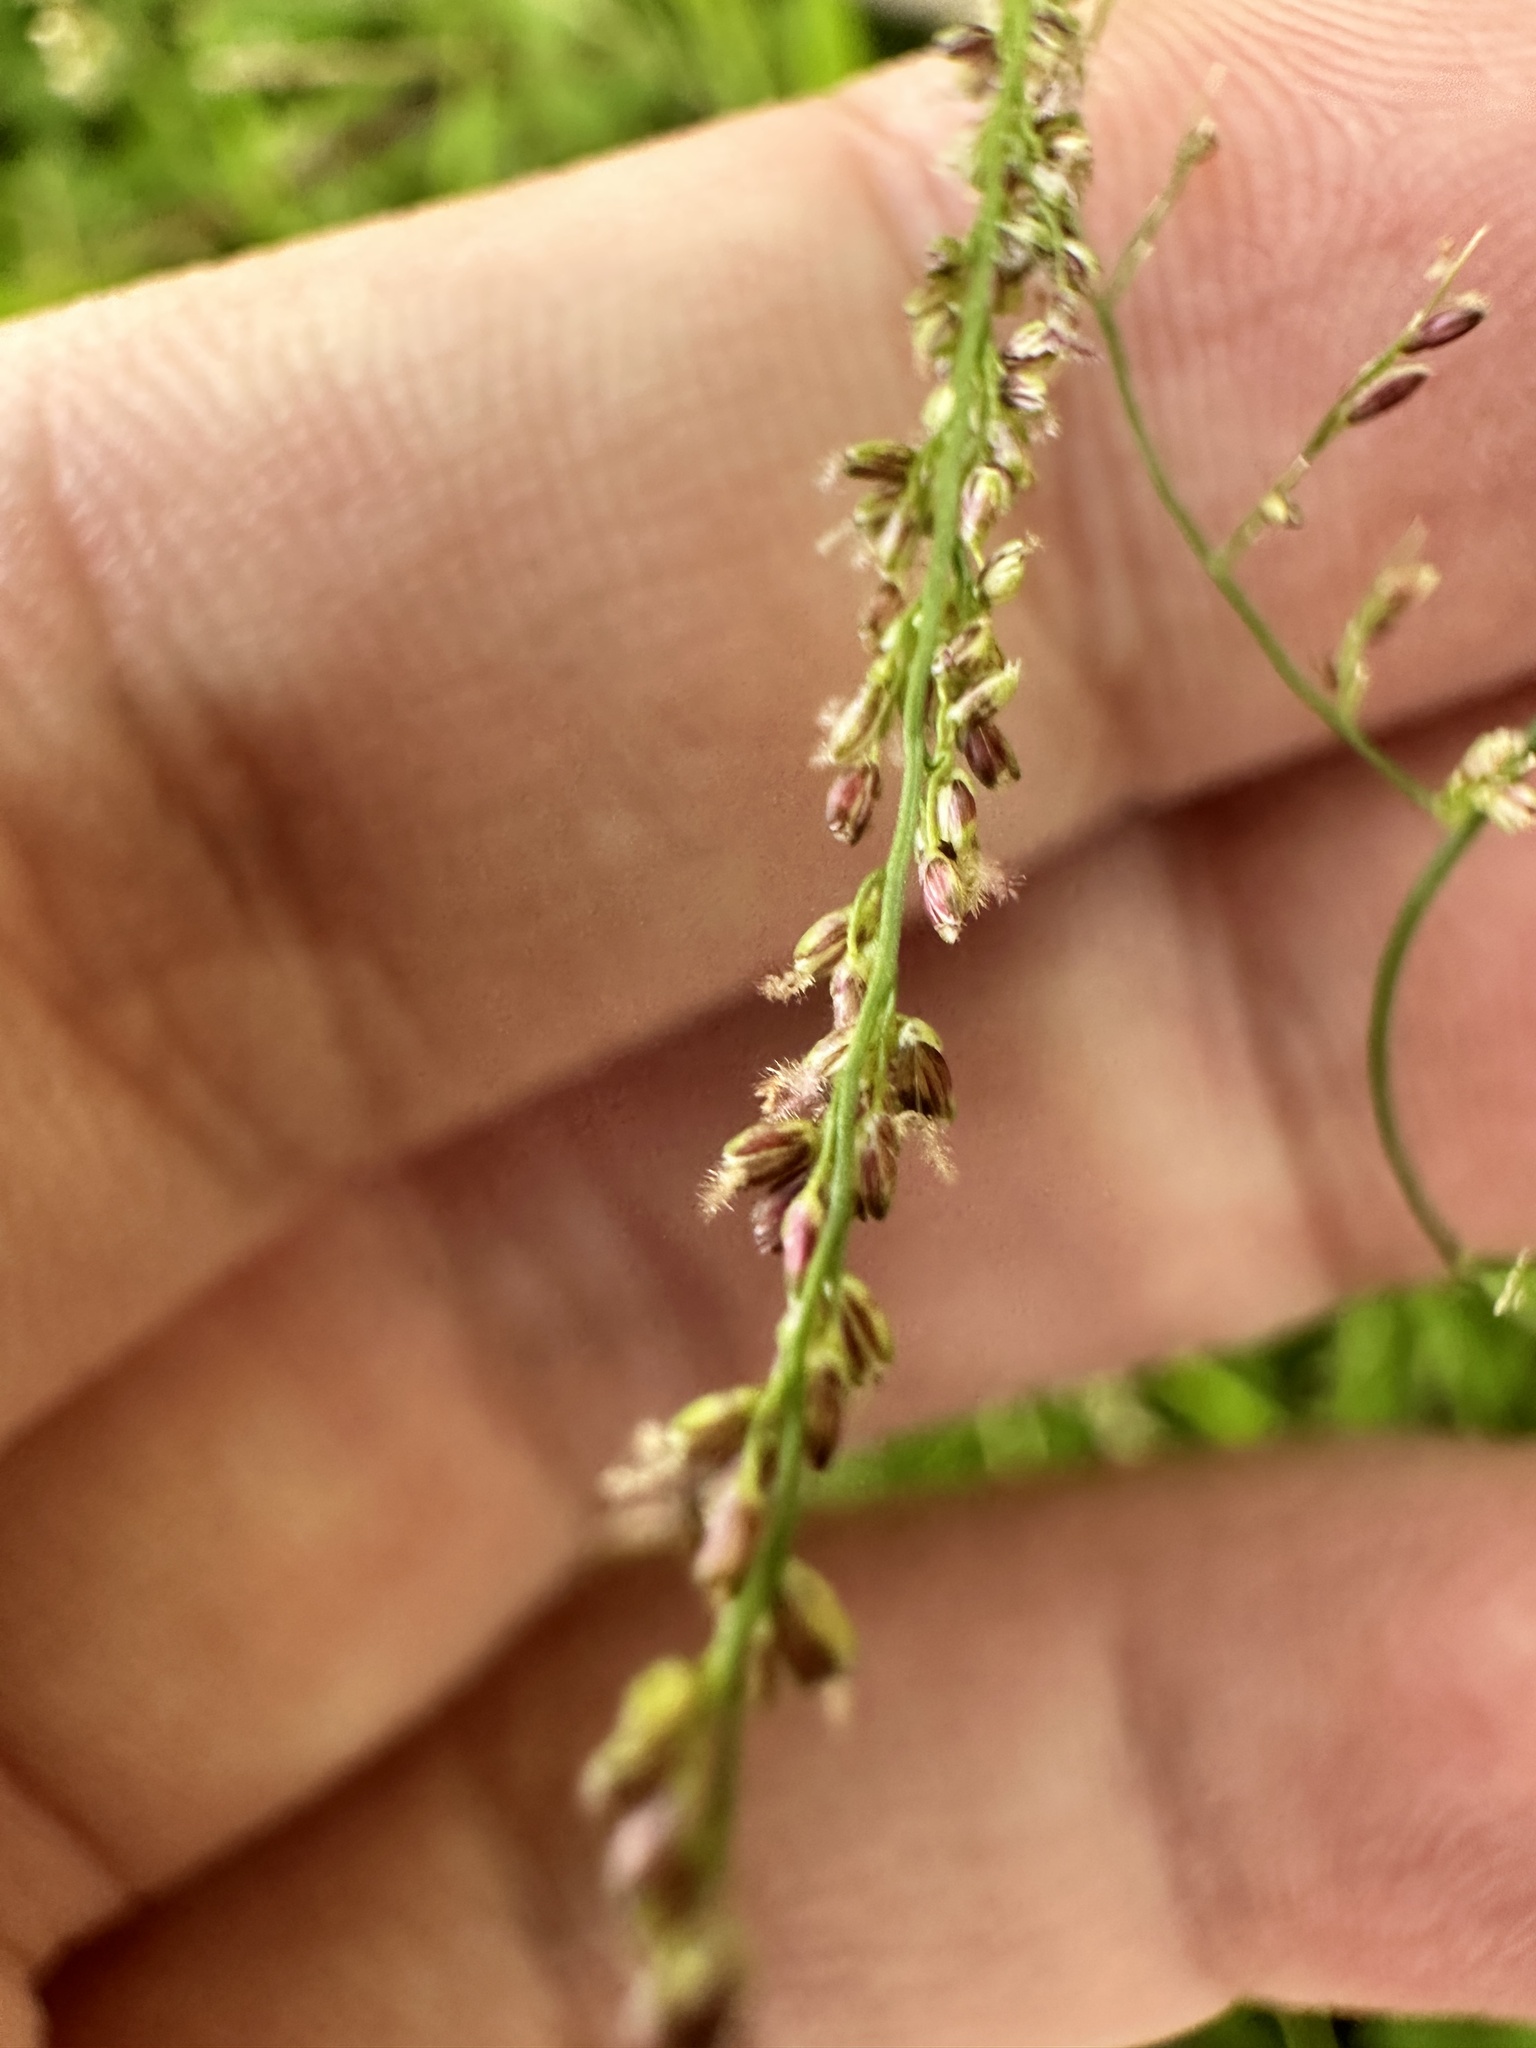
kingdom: Plantae
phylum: Tracheophyta
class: Liliopsida
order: Poales
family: Poaceae
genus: Steinchisma
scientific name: Steinchisma laxum
